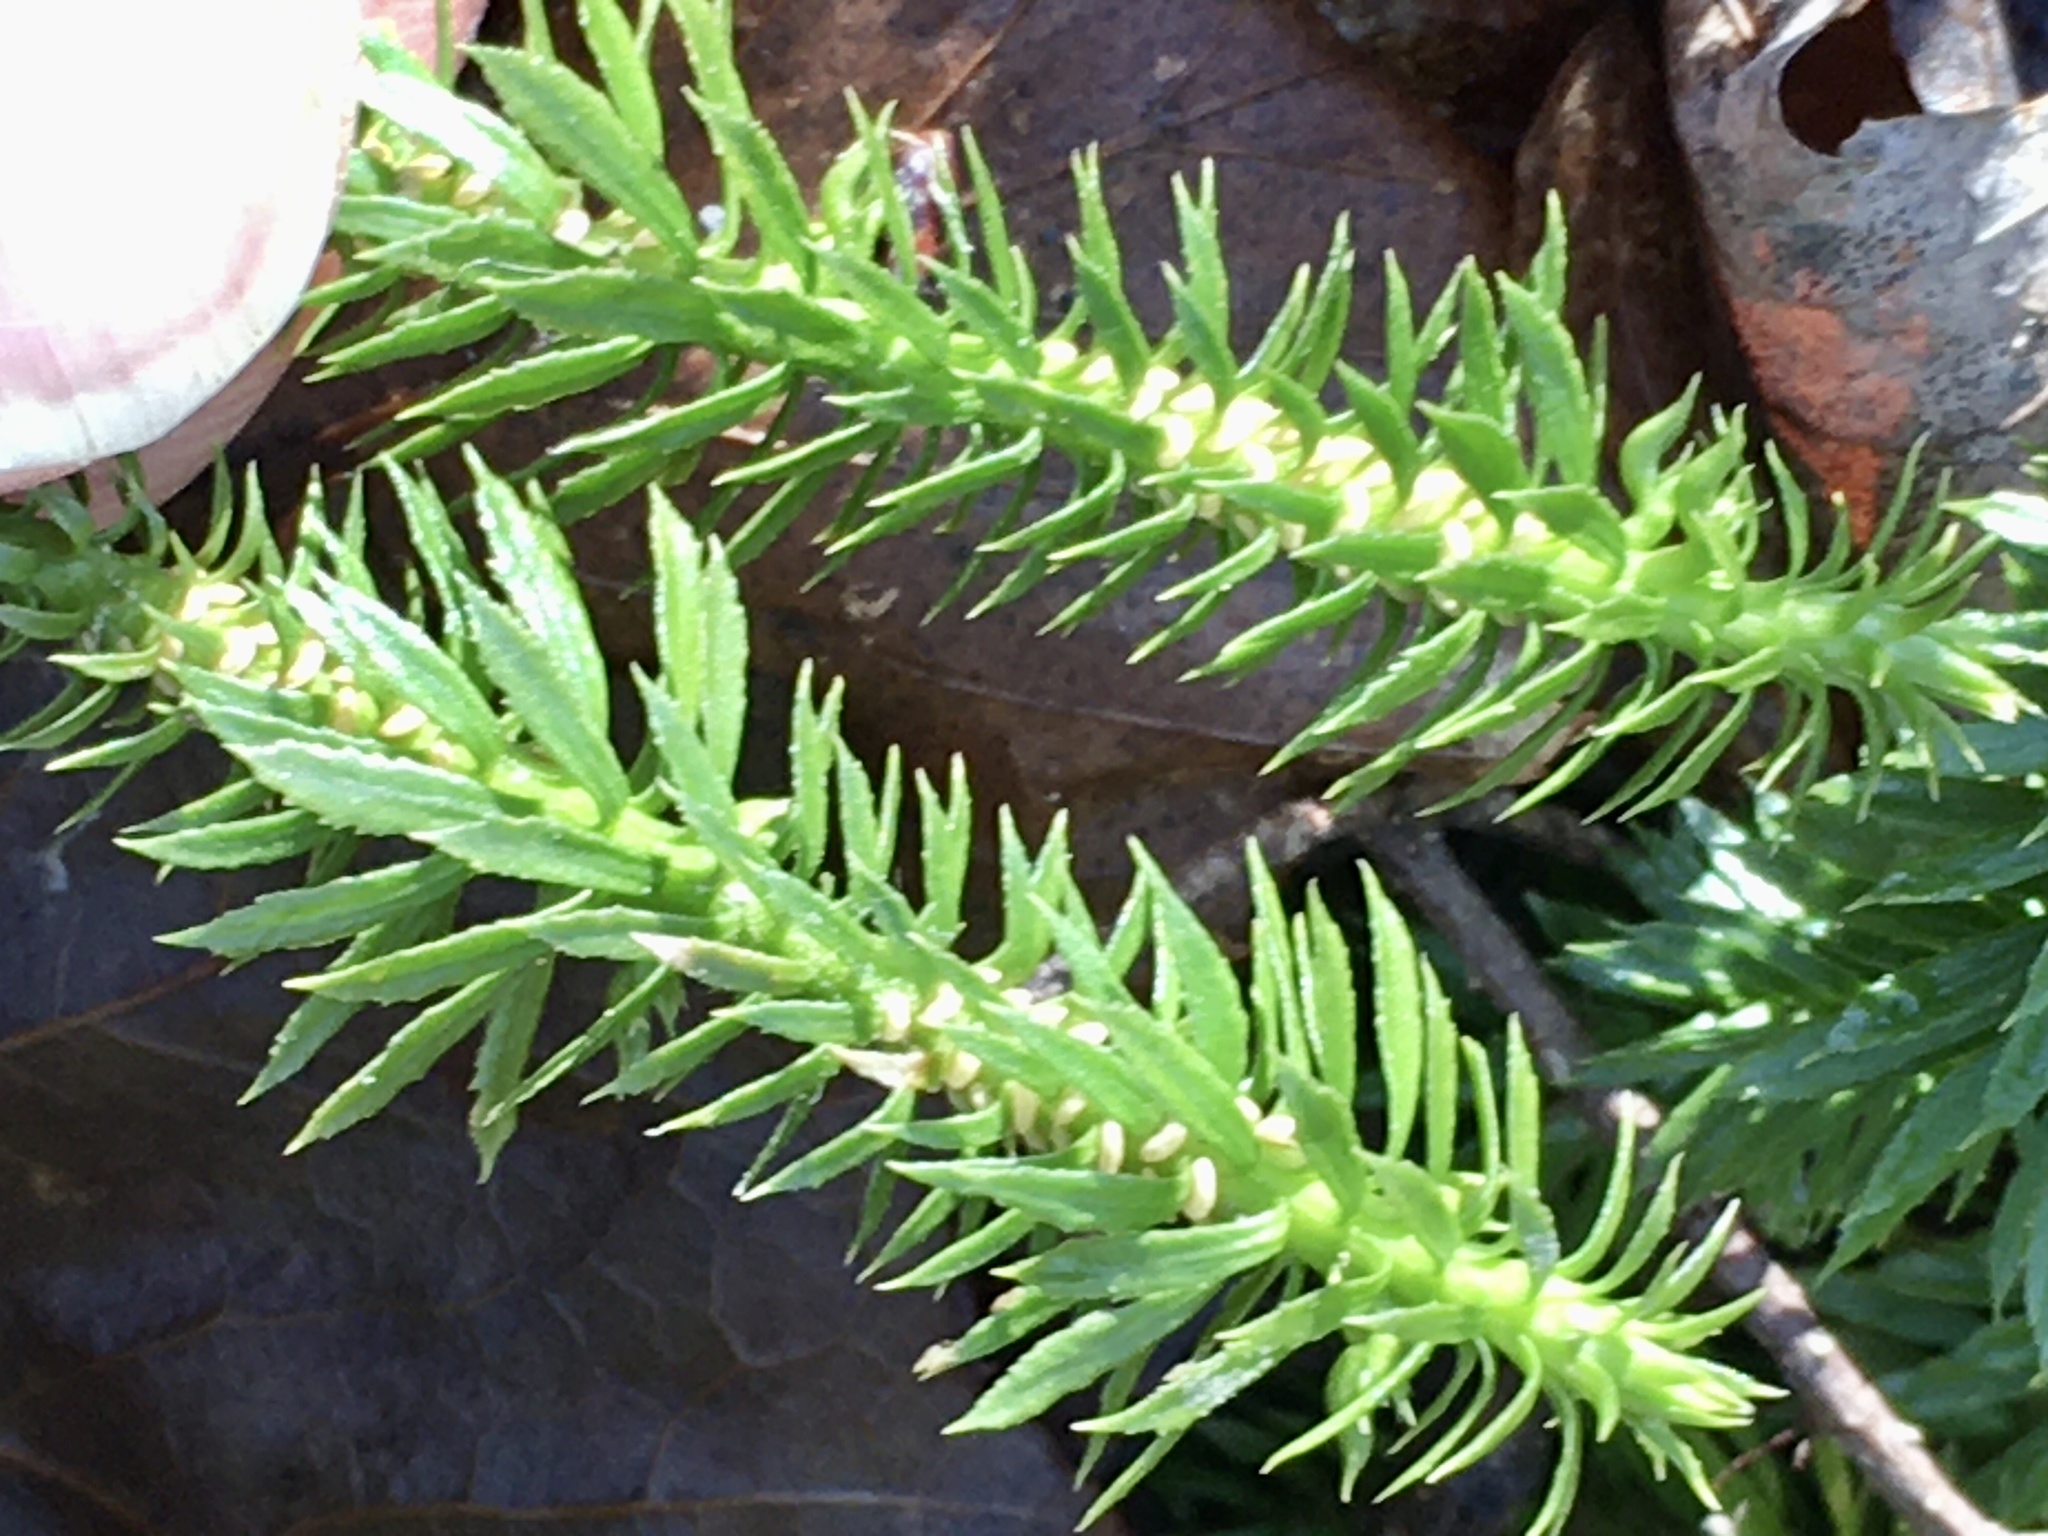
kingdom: Plantae
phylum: Tracheophyta
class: Lycopodiopsida
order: Lycopodiales
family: Lycopodiaceae
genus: Huperzia
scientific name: Huperzia lucidula
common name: Shining clubmoss
